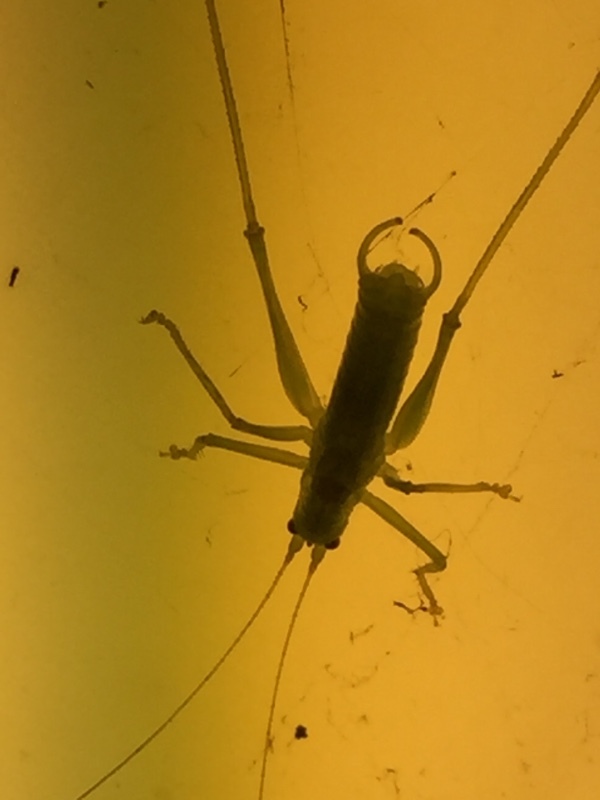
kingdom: Animalia
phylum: Arthropoda
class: Insecta
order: Orthoptera
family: Tettigoniidae
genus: Meconema
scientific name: Meconema meridionale
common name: Southern oak bush-cricket
